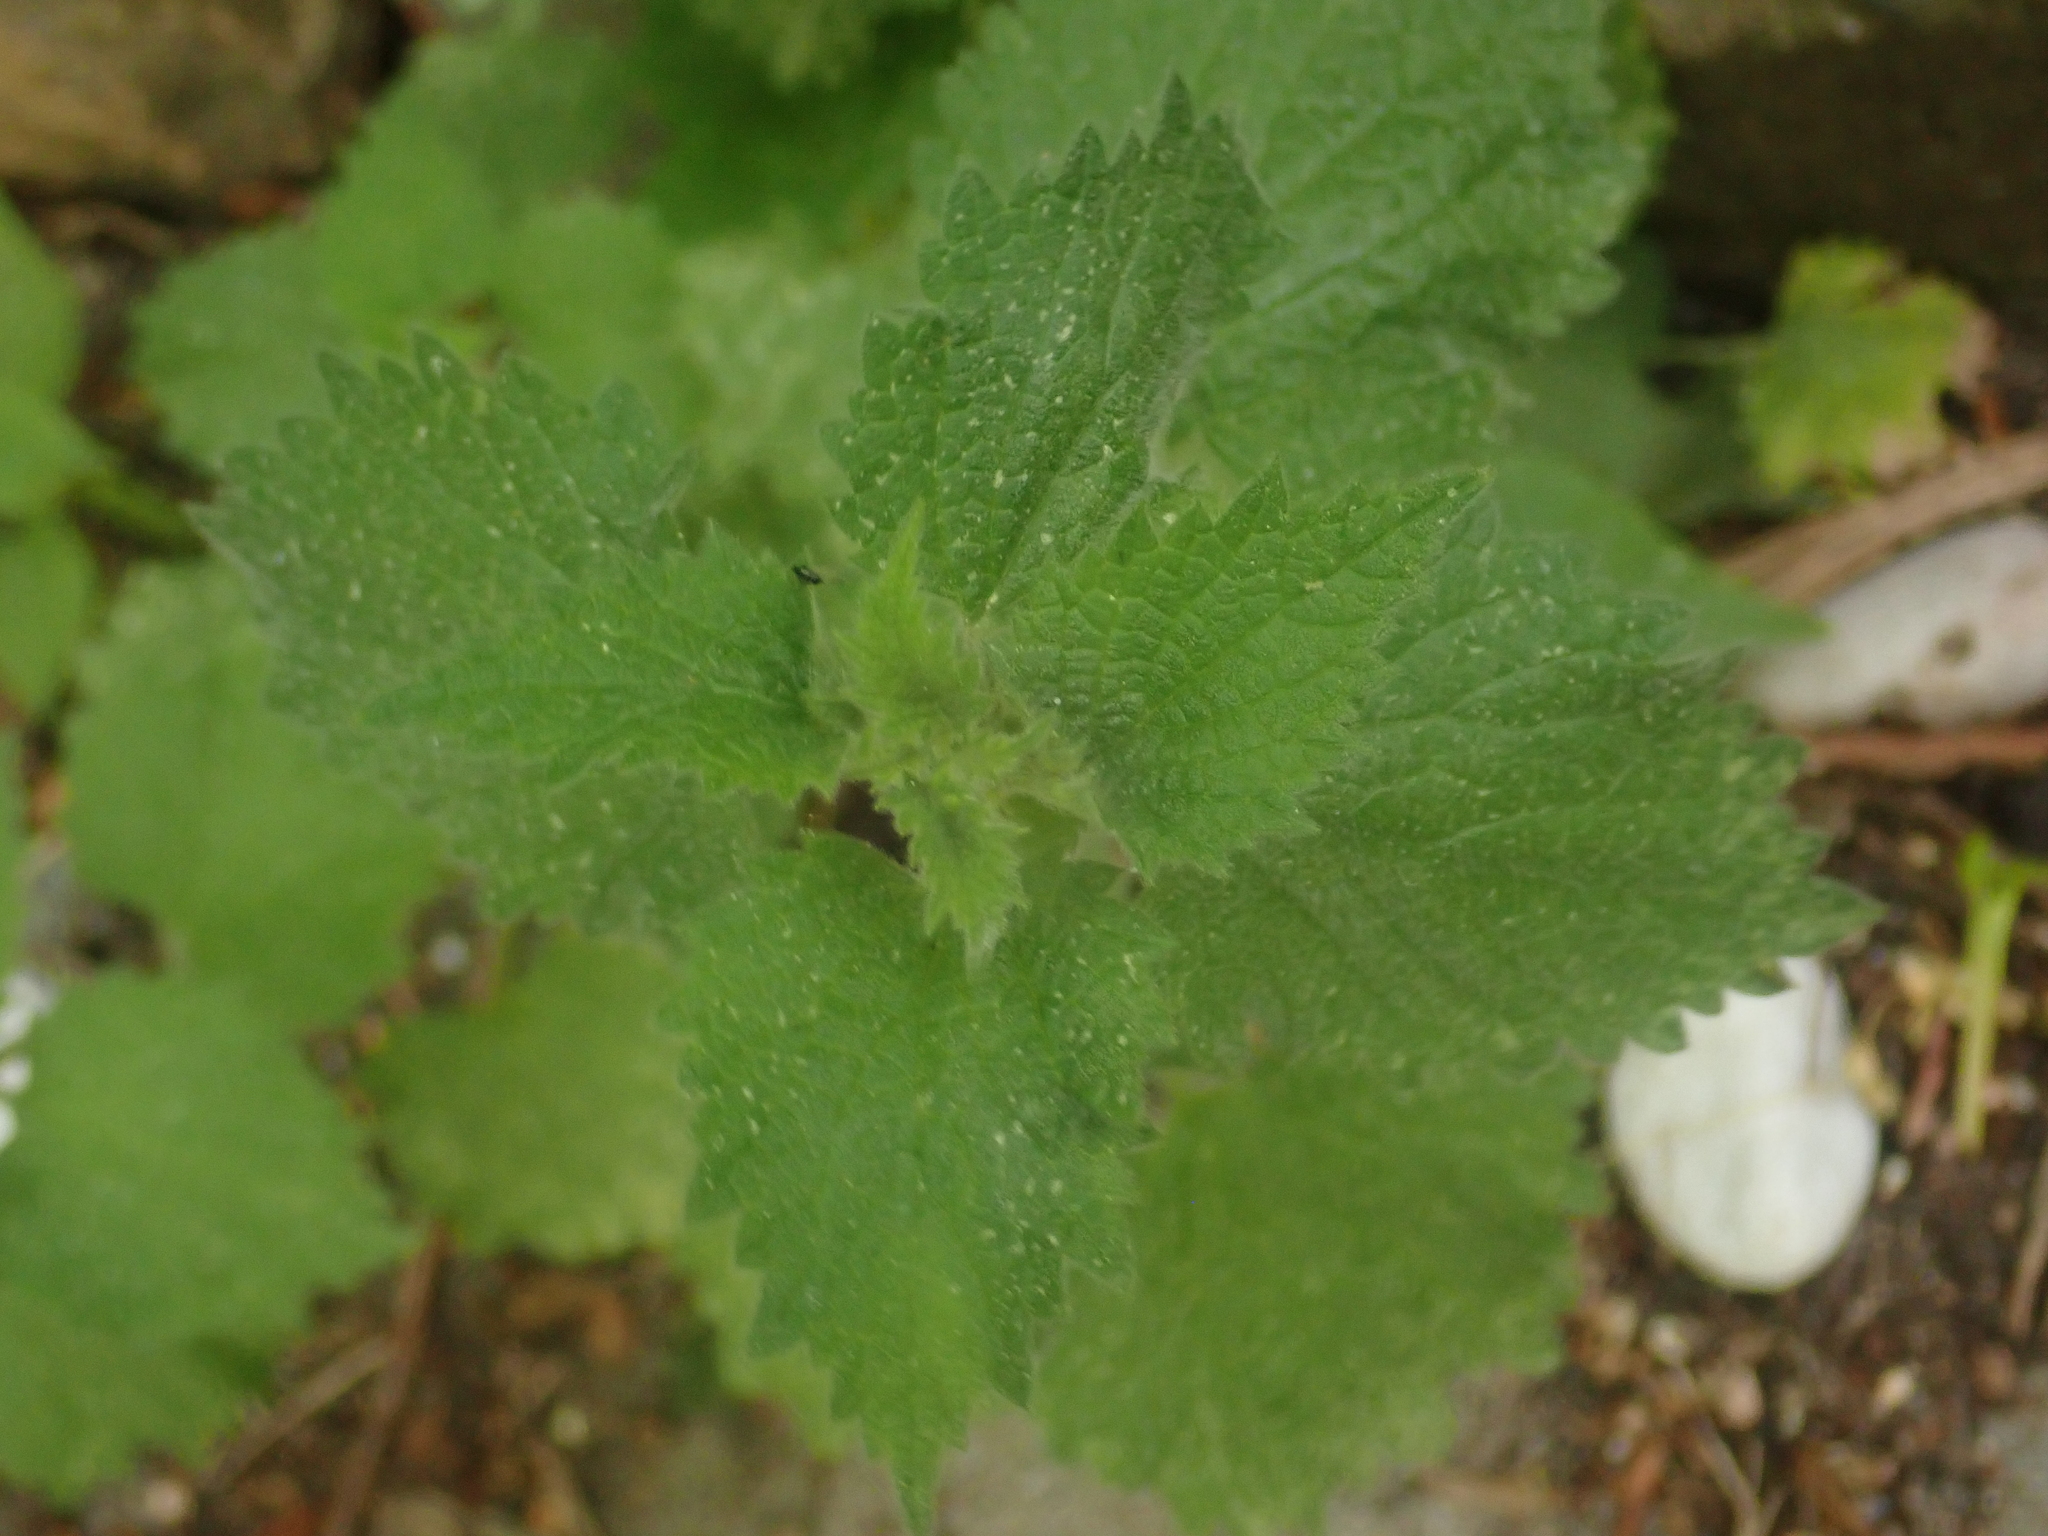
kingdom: Plantae
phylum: Tracheophyta
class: Magnoliopsida
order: Lamiales
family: Lamiaceae
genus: Ballota
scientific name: Ballota nigra
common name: Black horehound
